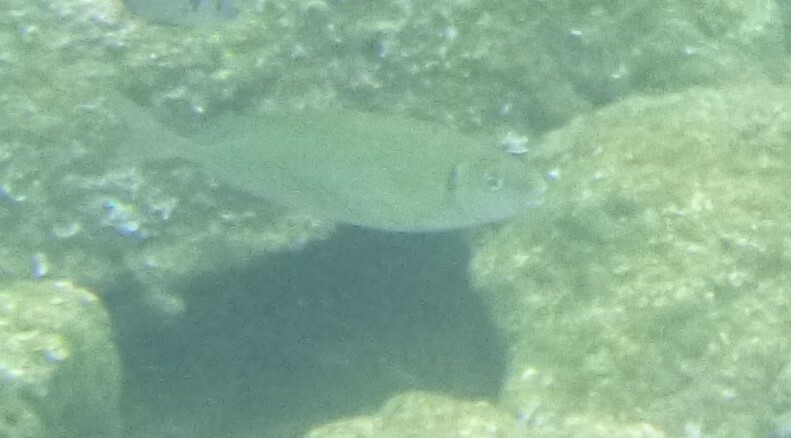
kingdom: Animalia
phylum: Chordata
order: Perciformes
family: Siganidae
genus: Siganus
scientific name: Siganus rivulatus
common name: Marbled spinefoot
